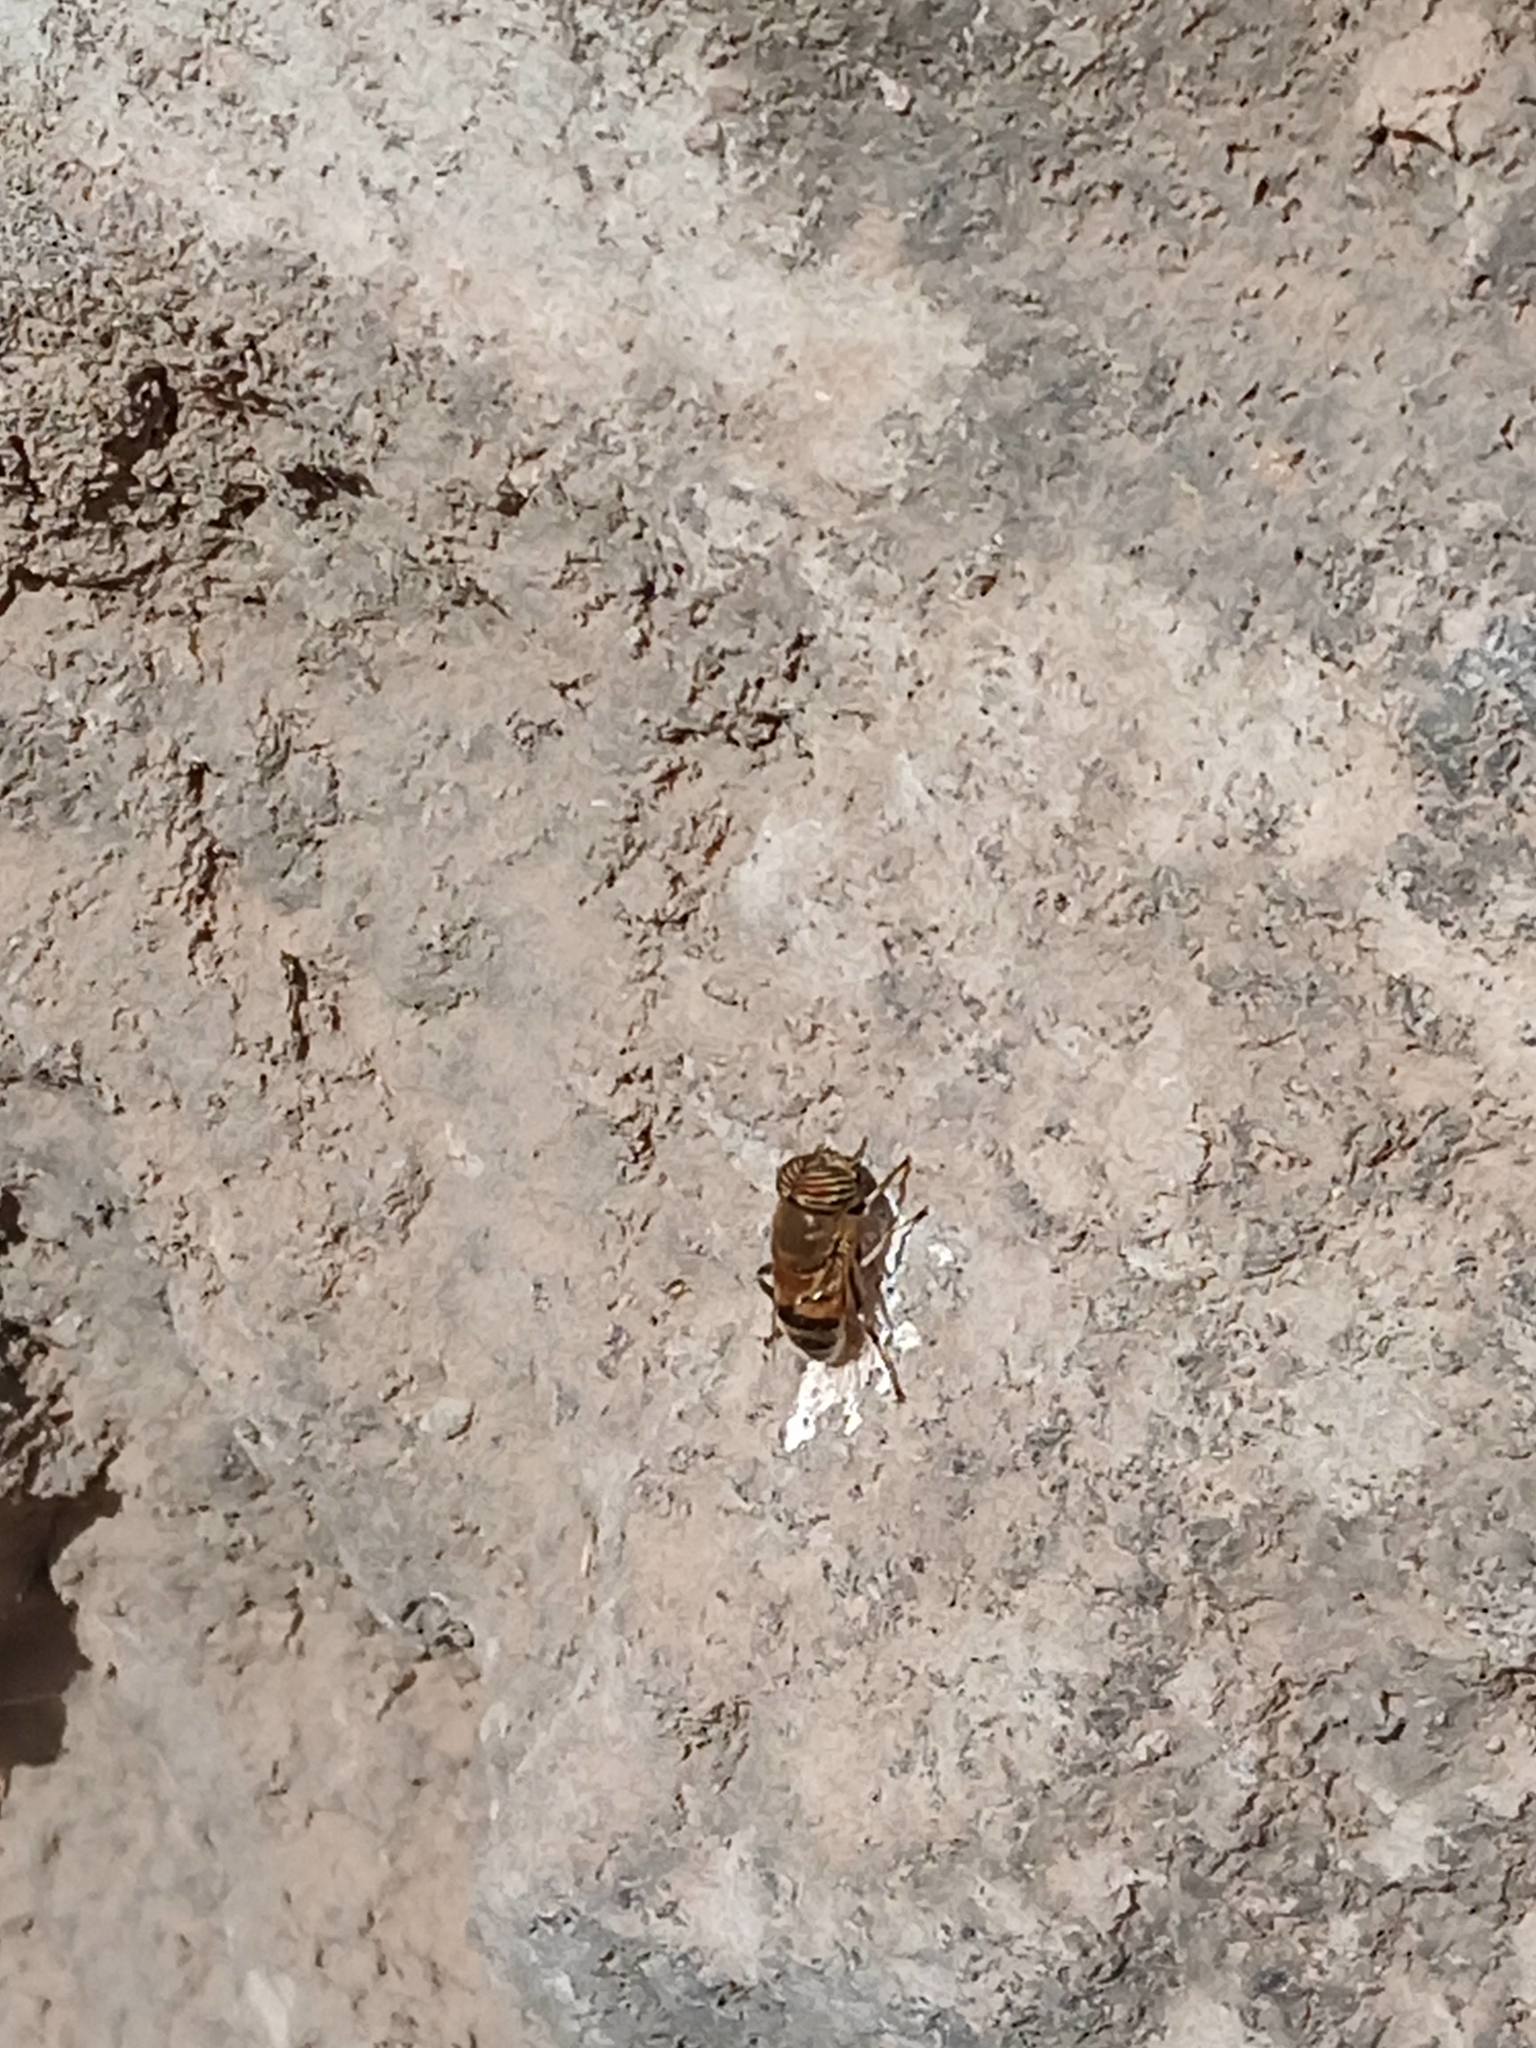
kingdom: Animalia
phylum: Arthropoda
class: Insecta
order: Diptera
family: Syrphidae
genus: Eristalinus
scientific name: Eristalinus taeniops
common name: Syrphid fly
